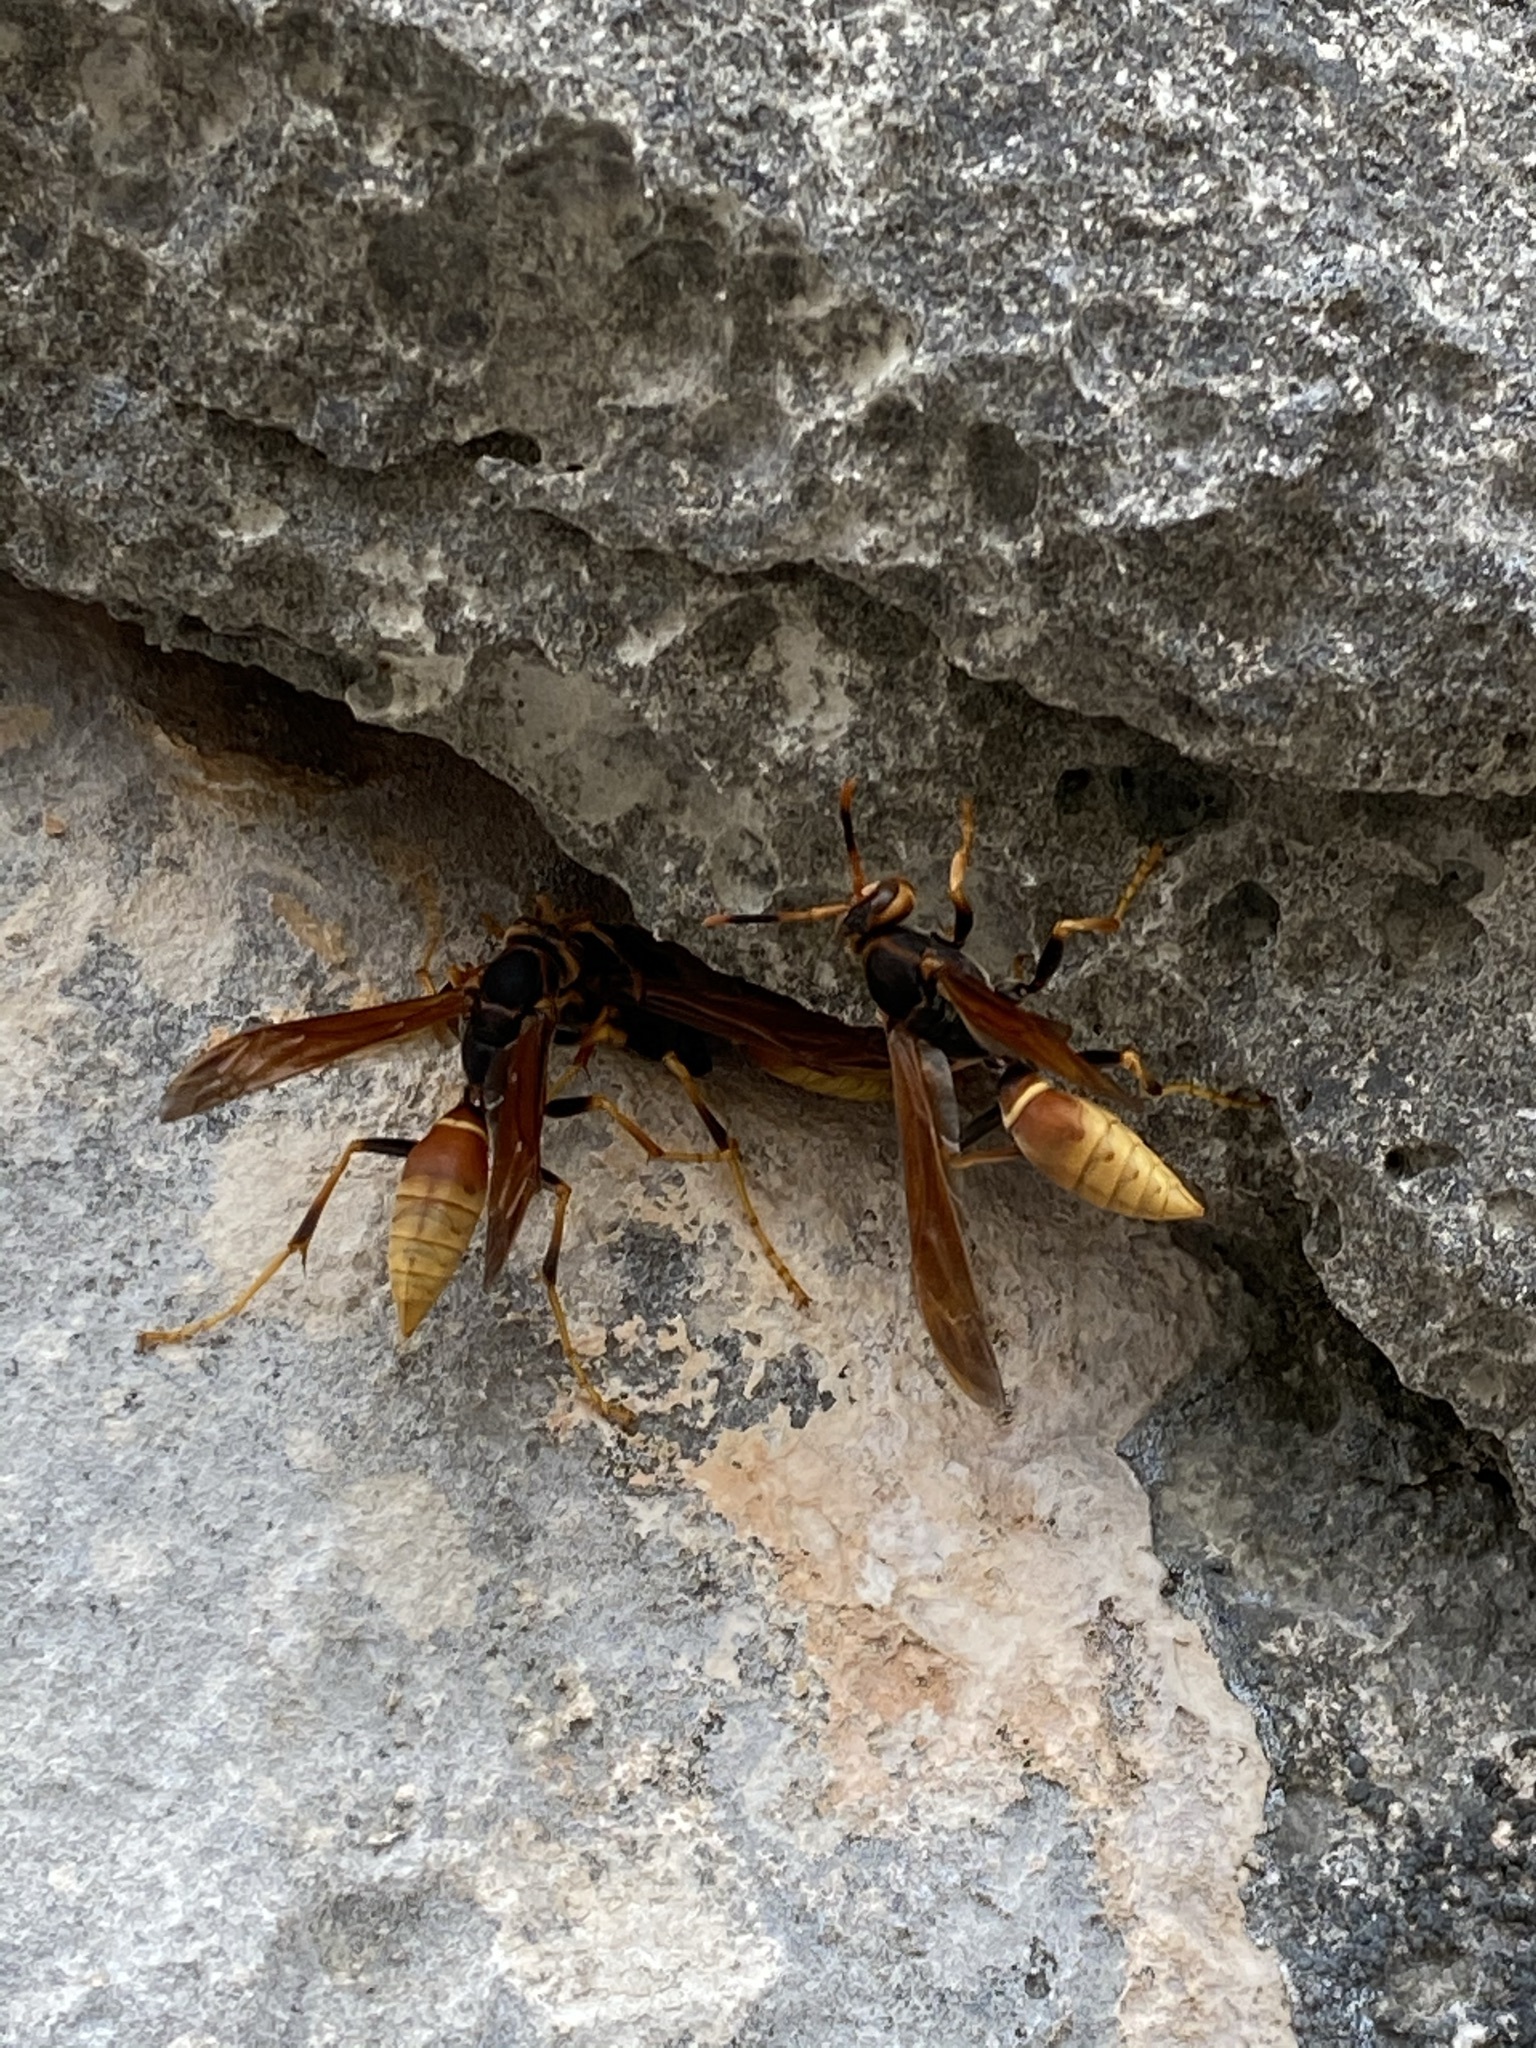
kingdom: Animalia
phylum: Arthropoda
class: Insecta
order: Hymenoptera
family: Eumenidae
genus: Polistes
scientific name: Polistes comanchus
